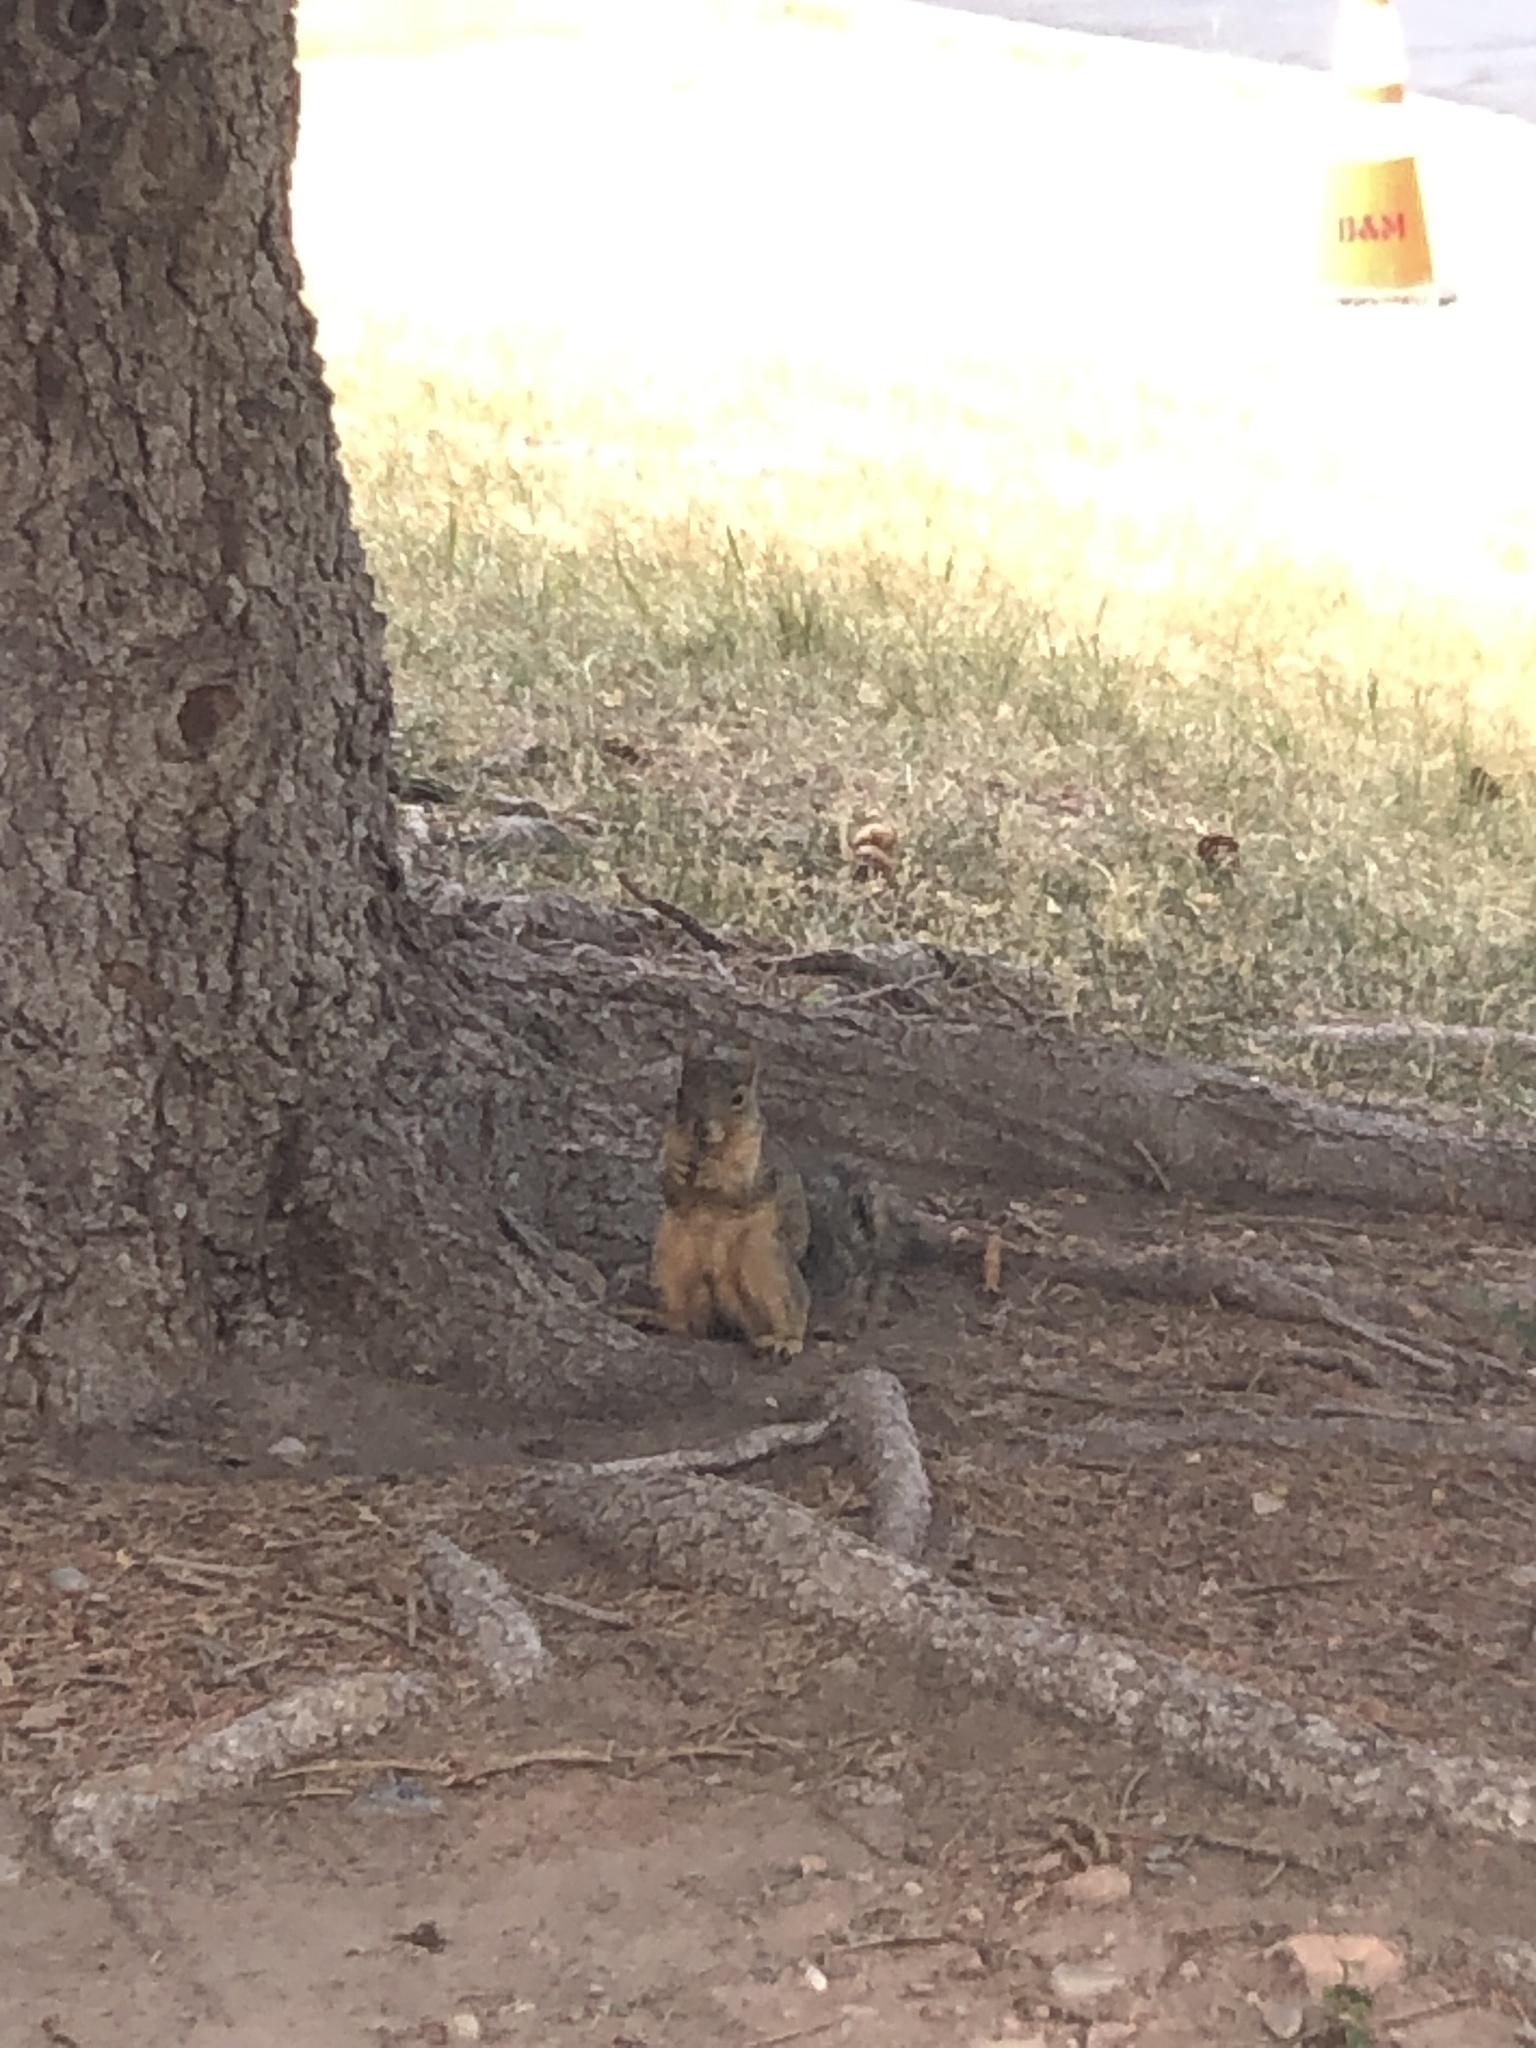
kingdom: Animalia
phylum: Chordata
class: Mammalia
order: Rodentia
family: Sciuridae
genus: Sciurus
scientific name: Sciurus niger
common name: Fox squirrel
